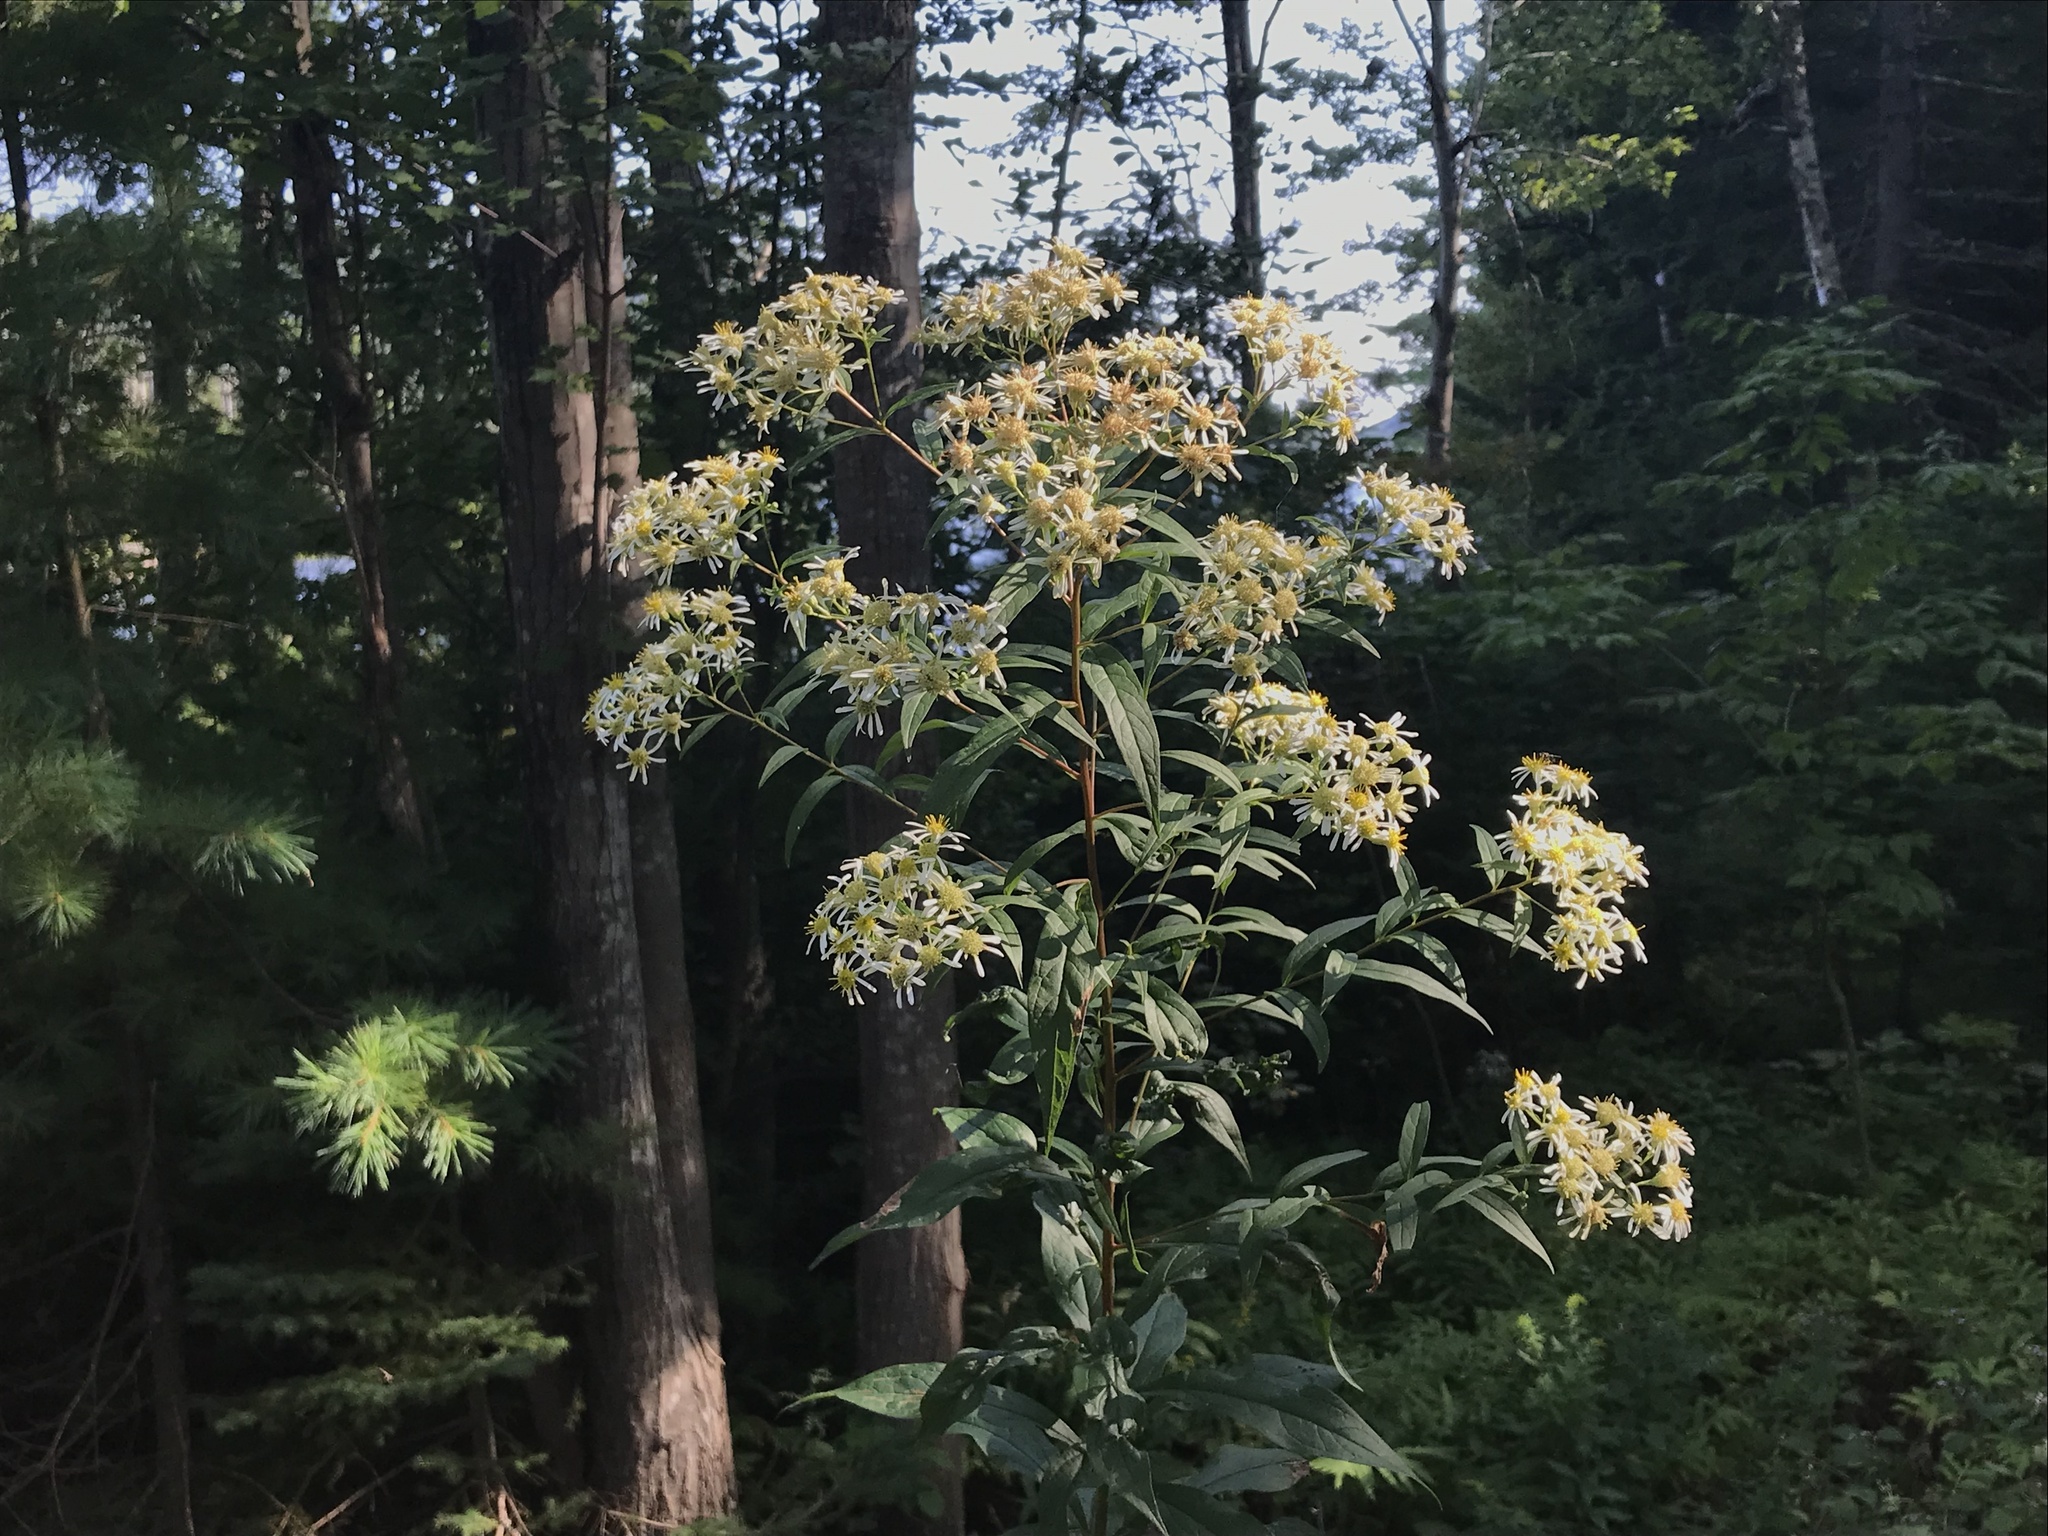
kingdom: Plantae
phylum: Tracheophyta
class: Magnoliopsida
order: Asterales
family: Asteraceae
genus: Doellingeria
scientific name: Doellingeria umbellata
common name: Flat-top white aster
